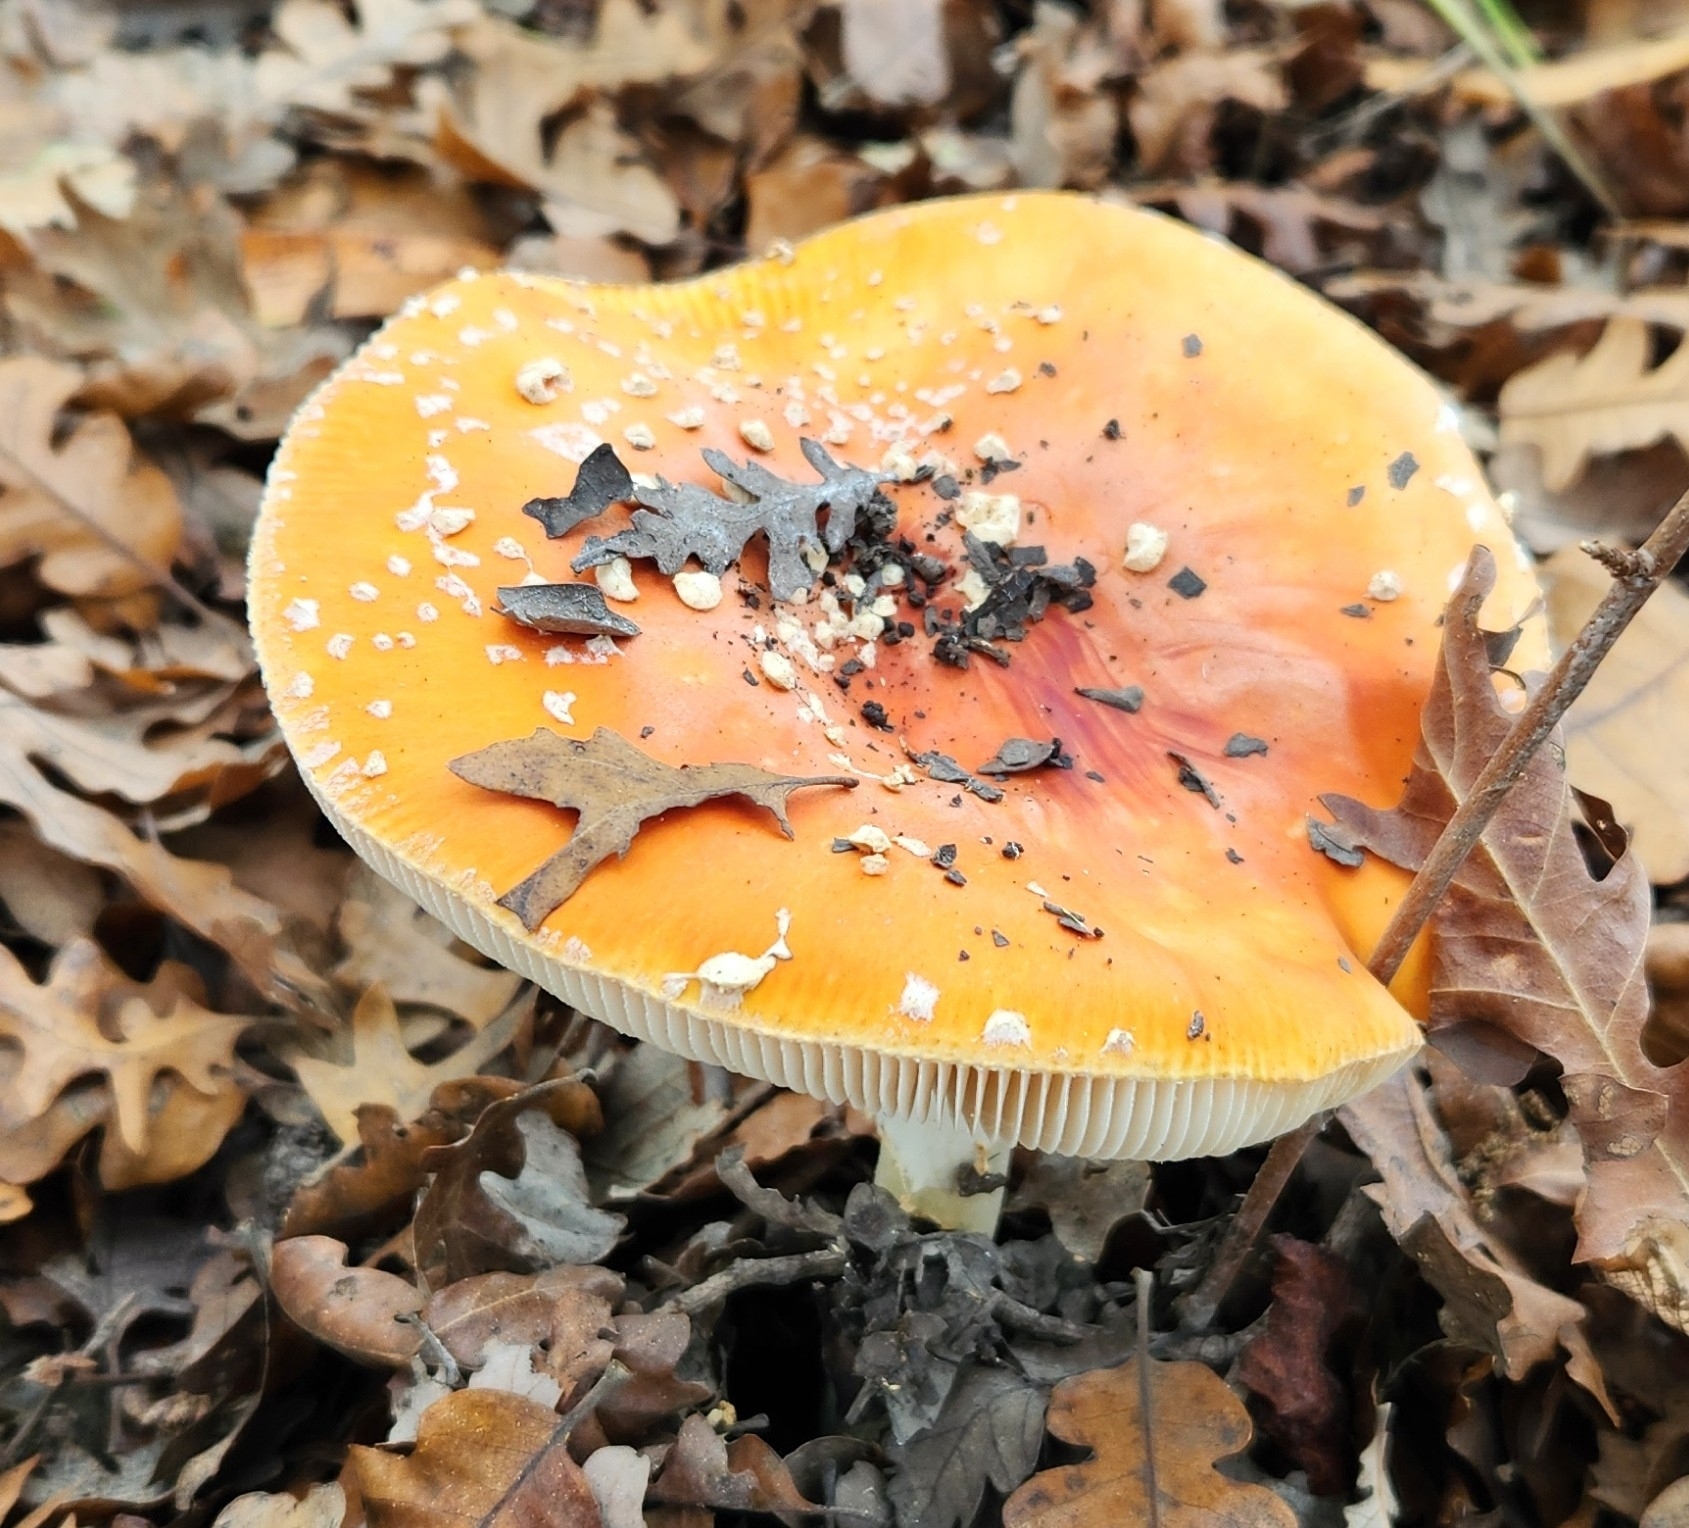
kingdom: Fungi
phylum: Basidiomycota
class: Agaricomycetes
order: Agaricales
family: Amanitaceae
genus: Amanita
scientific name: Amanita muscaria
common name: Fly agaric
